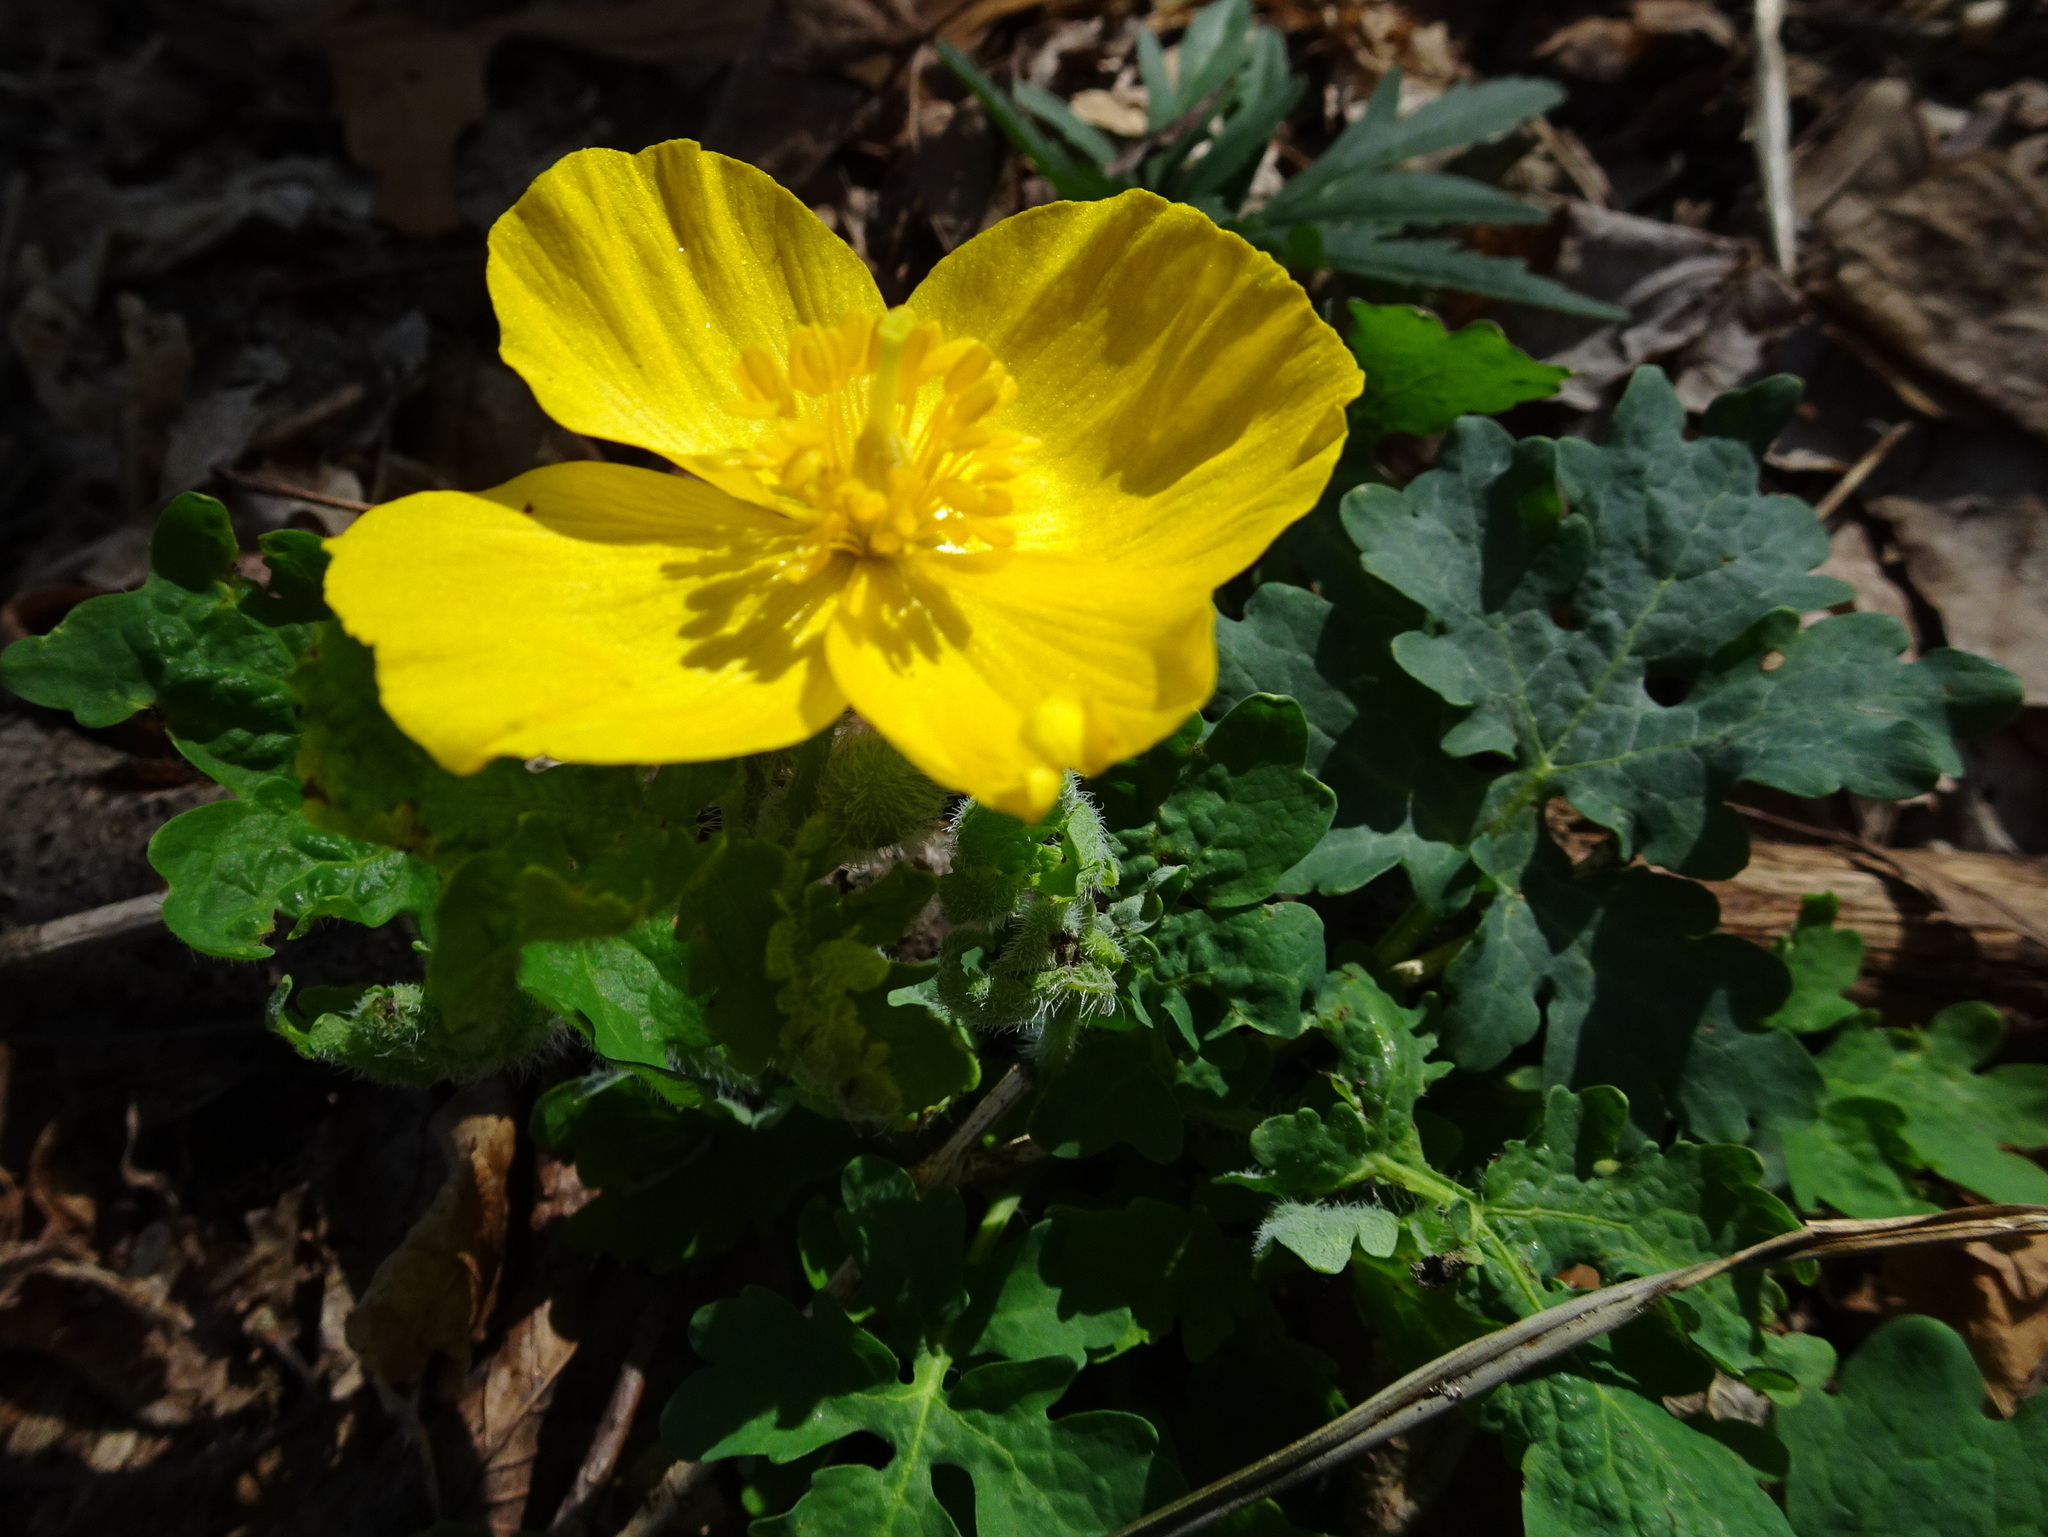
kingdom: Plantae
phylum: Tracheophyta
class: Magnoliopsida
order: Ranunculales
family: Papaveraceae
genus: Stylophorum
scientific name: Stylophorum diphyllum
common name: Celandine poppy
